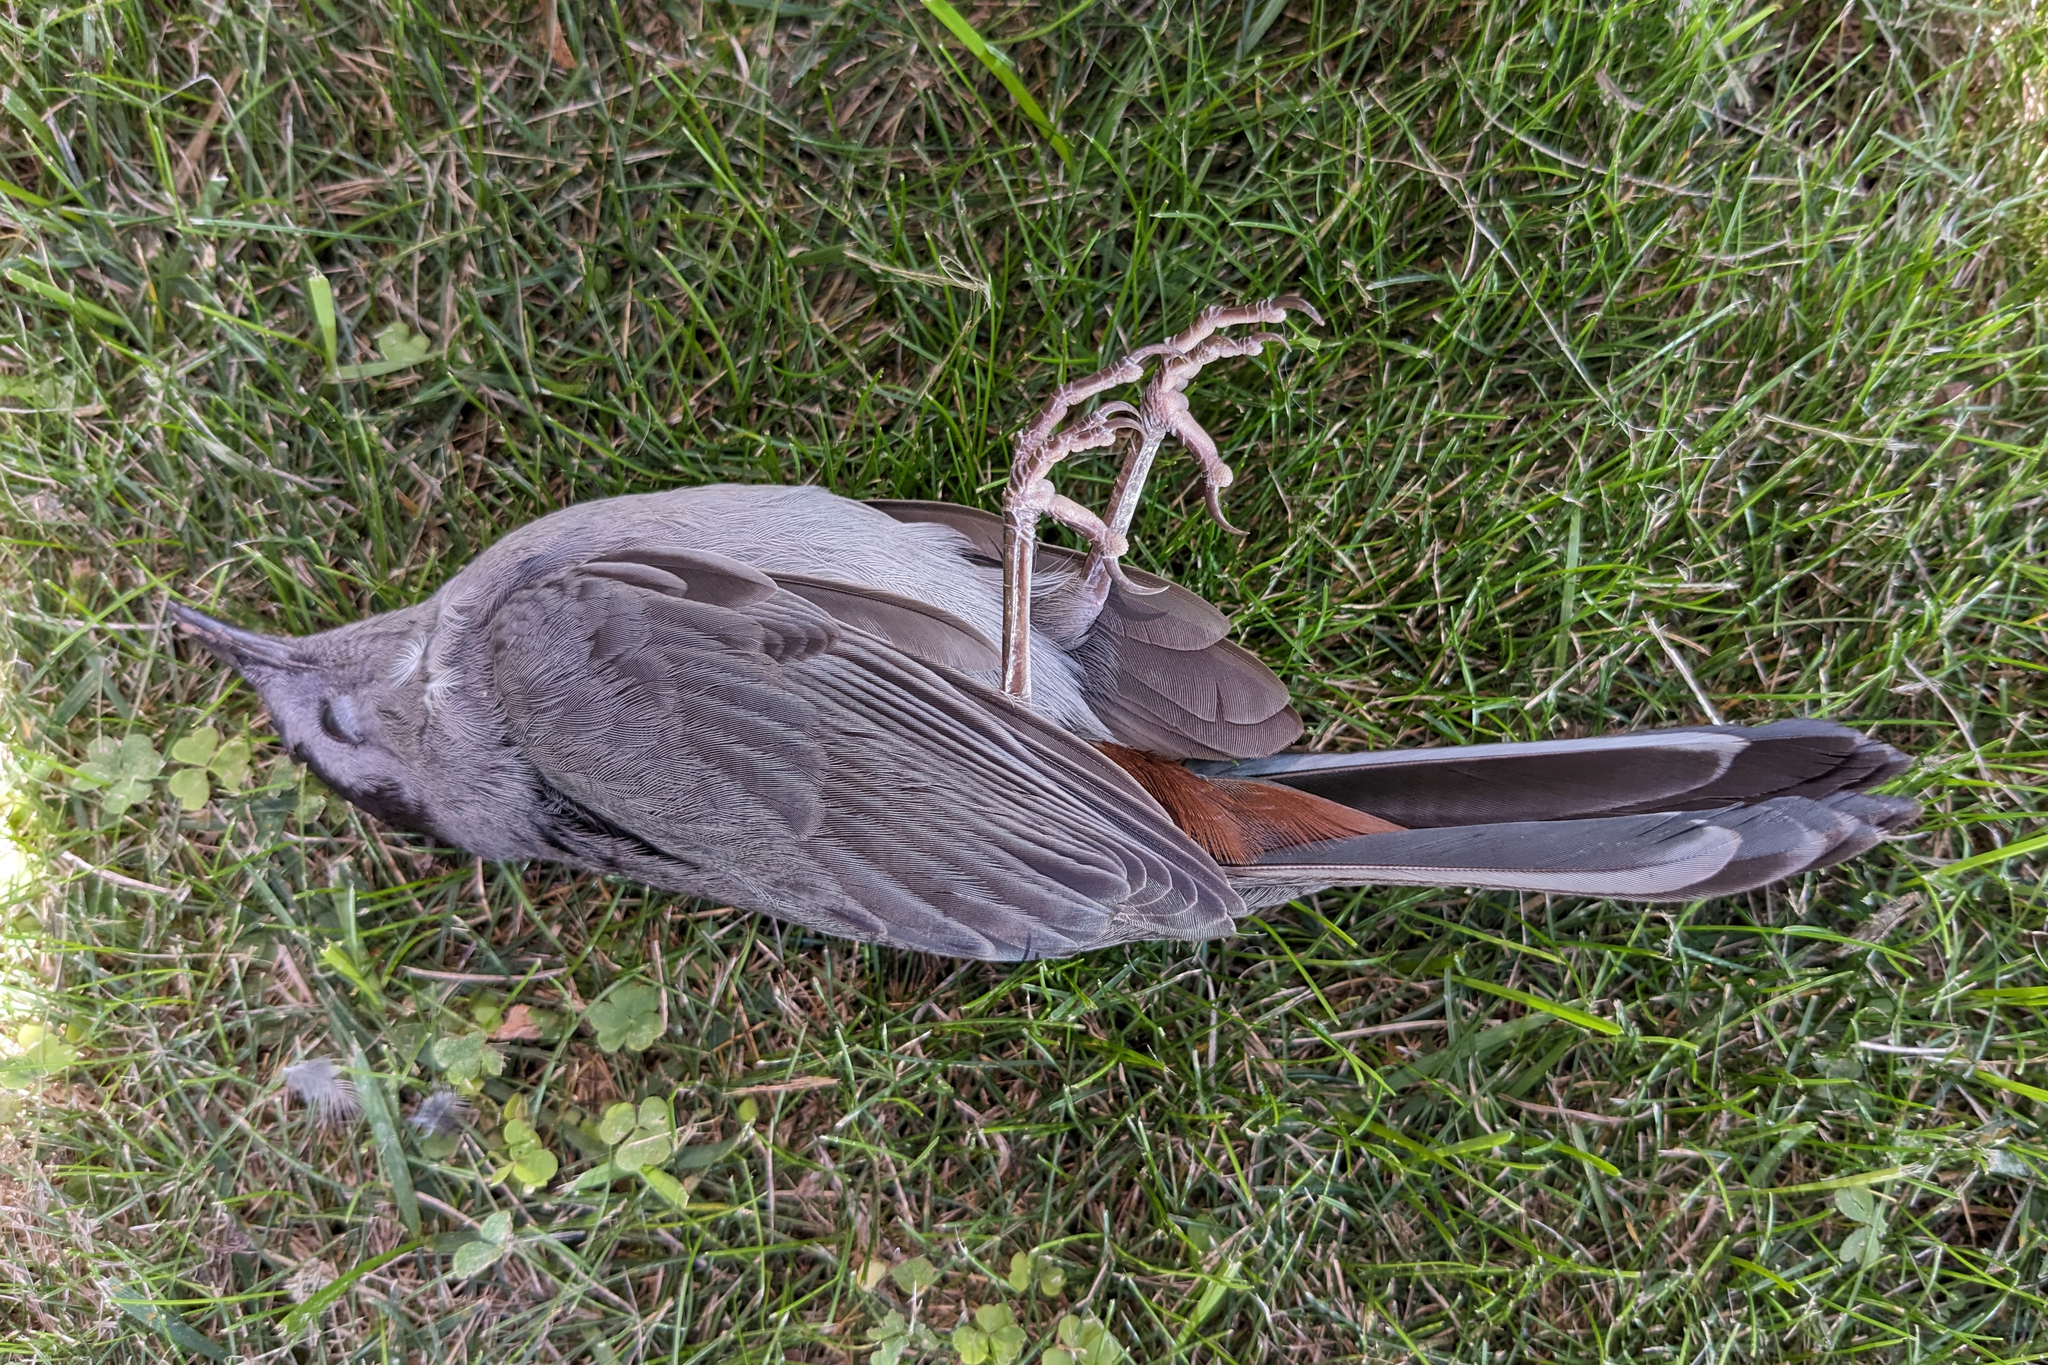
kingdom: Animalia
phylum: Chordata
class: Aves
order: Passeriformes
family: Mimidae
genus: Dumetella
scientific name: Dumetella carolinensis
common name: Gray catbird
